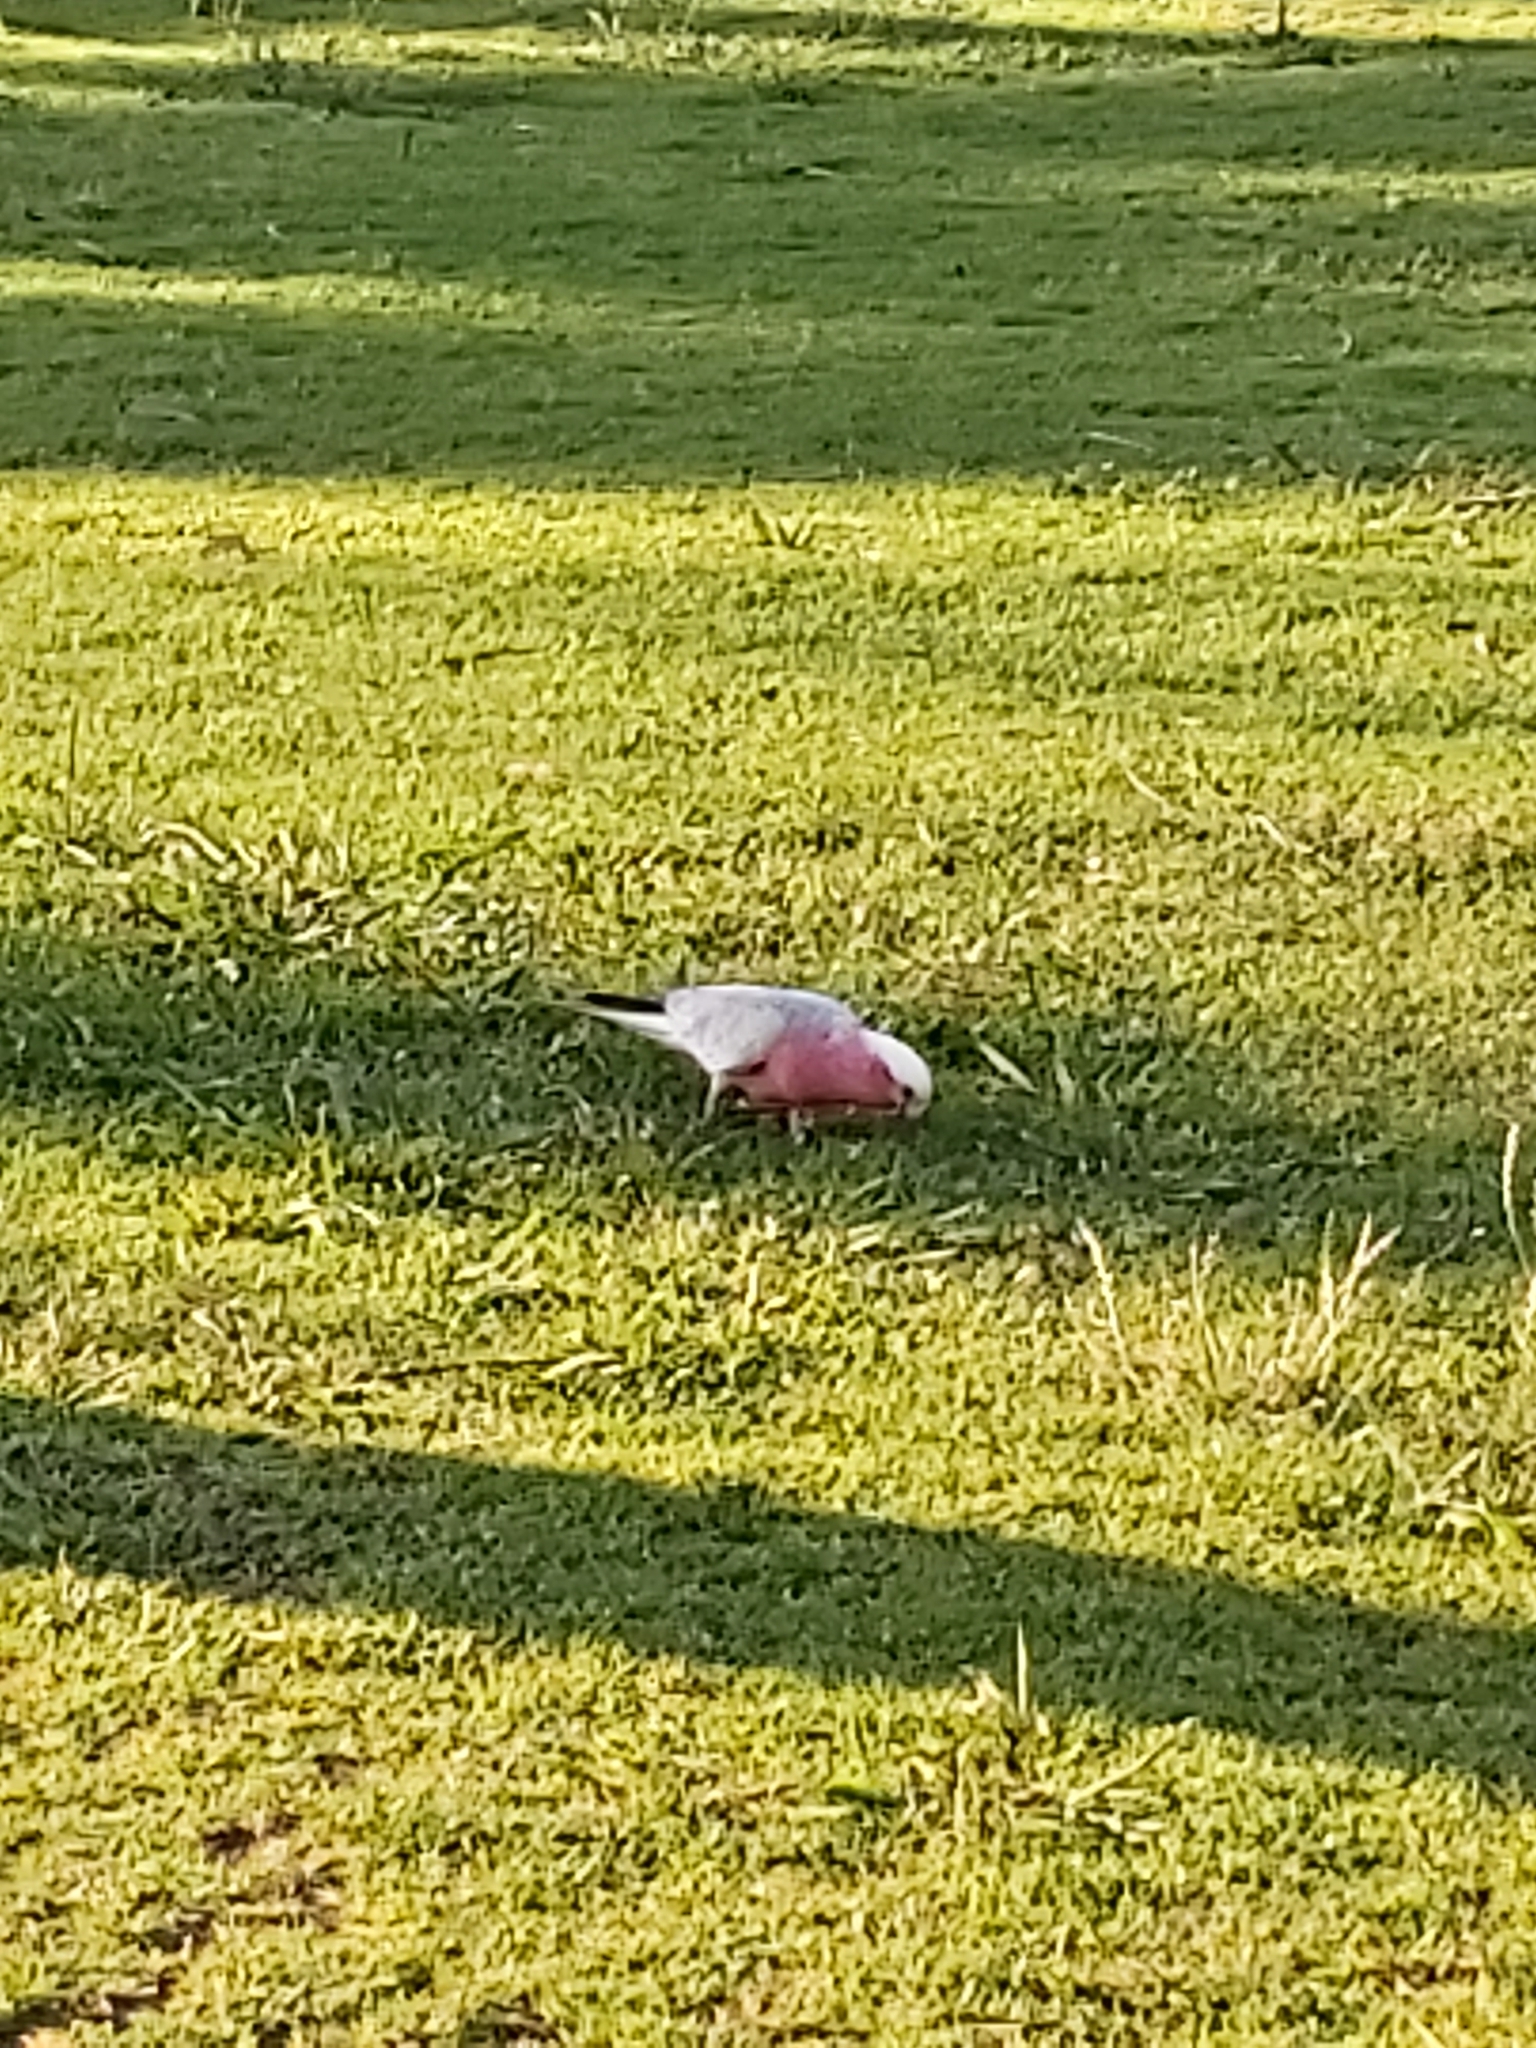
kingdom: Animalia
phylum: Chordata
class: Aves
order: Psittaciformes
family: Psittacidae
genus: Eolophus
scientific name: Eolophus roseicapilla
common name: Galah
